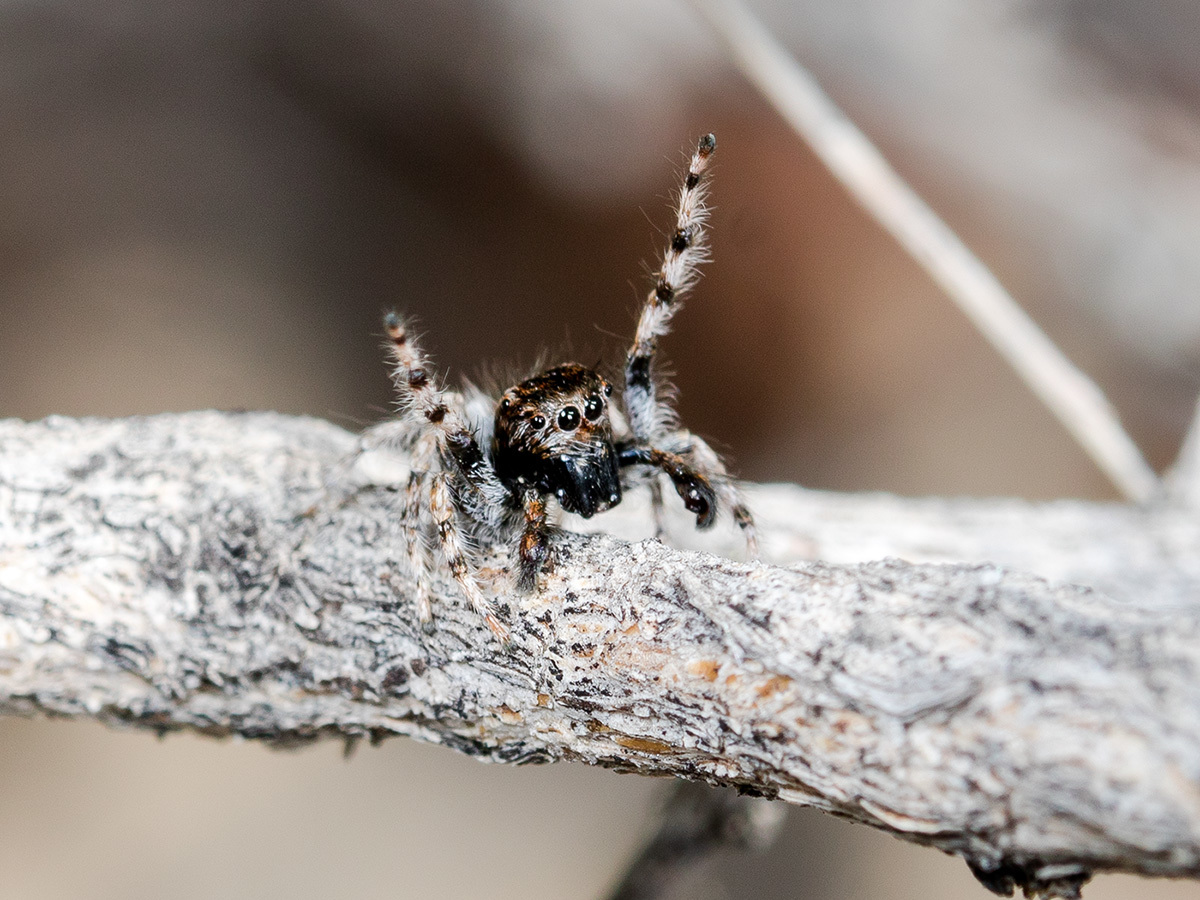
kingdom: Animalia
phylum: Arthropoda
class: Arachnida
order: Araneae
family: Salticidae
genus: Mogrus
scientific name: Mogrus valerii
